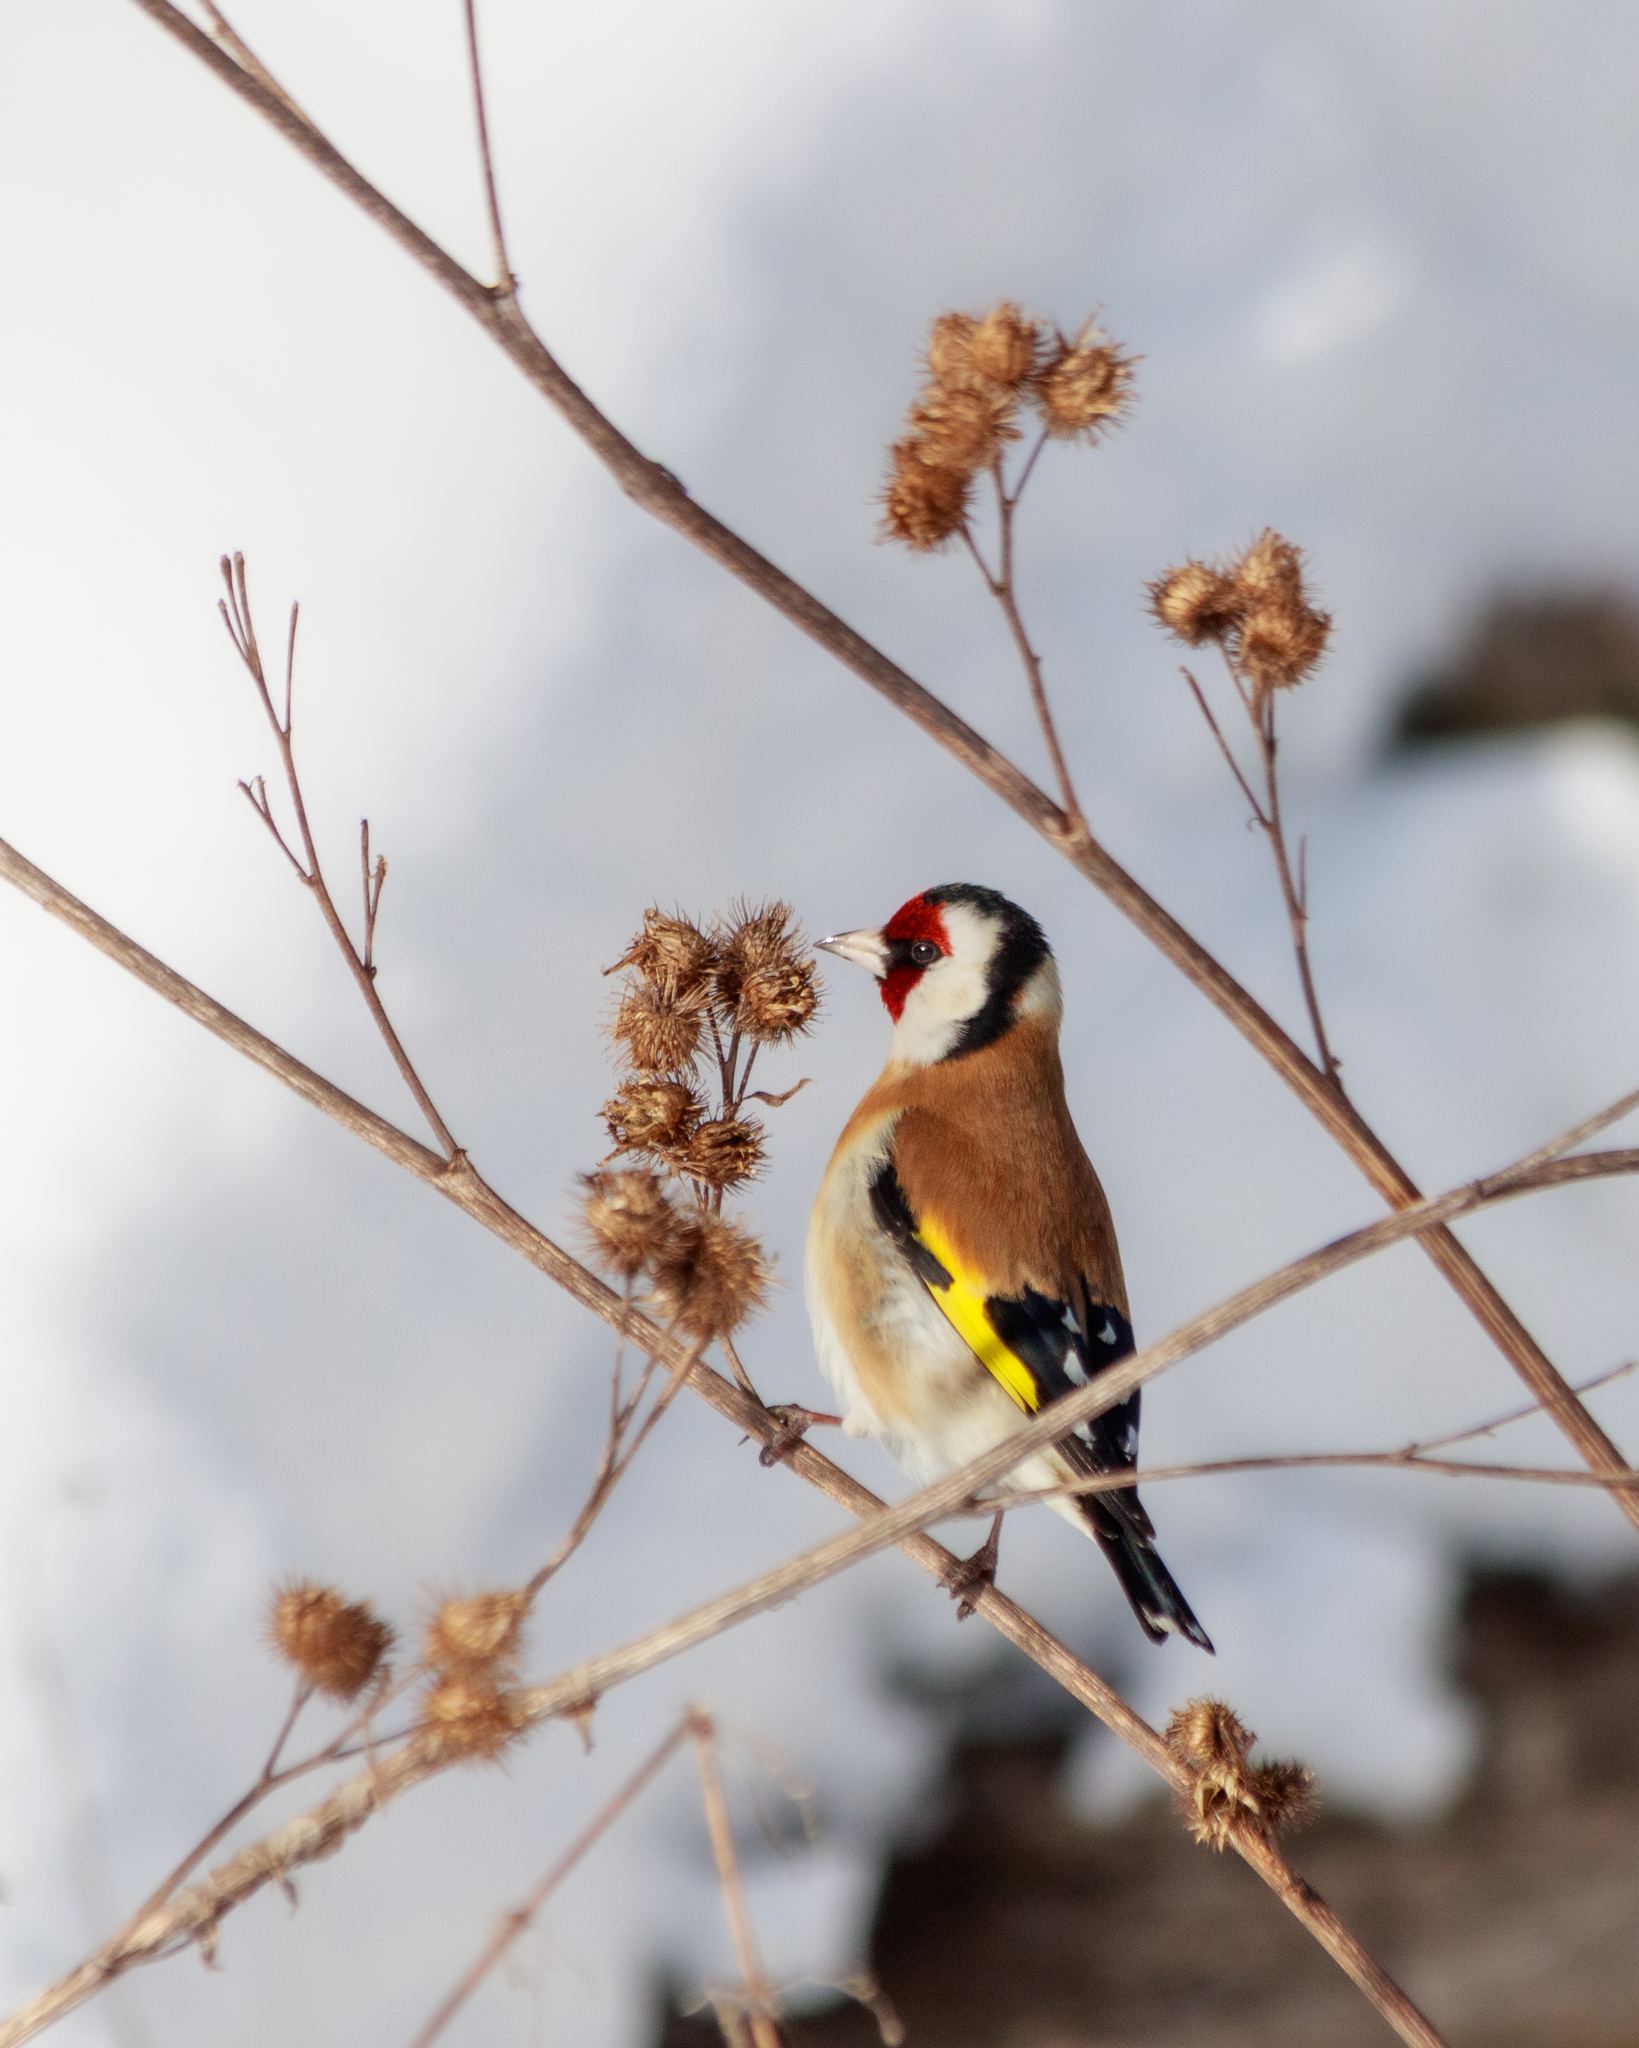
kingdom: Animalia
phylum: Chordata
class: Aves
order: Passeriformes
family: Fringillidae
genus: Carduelis
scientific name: Carduelis carduelis
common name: European goldfinch
